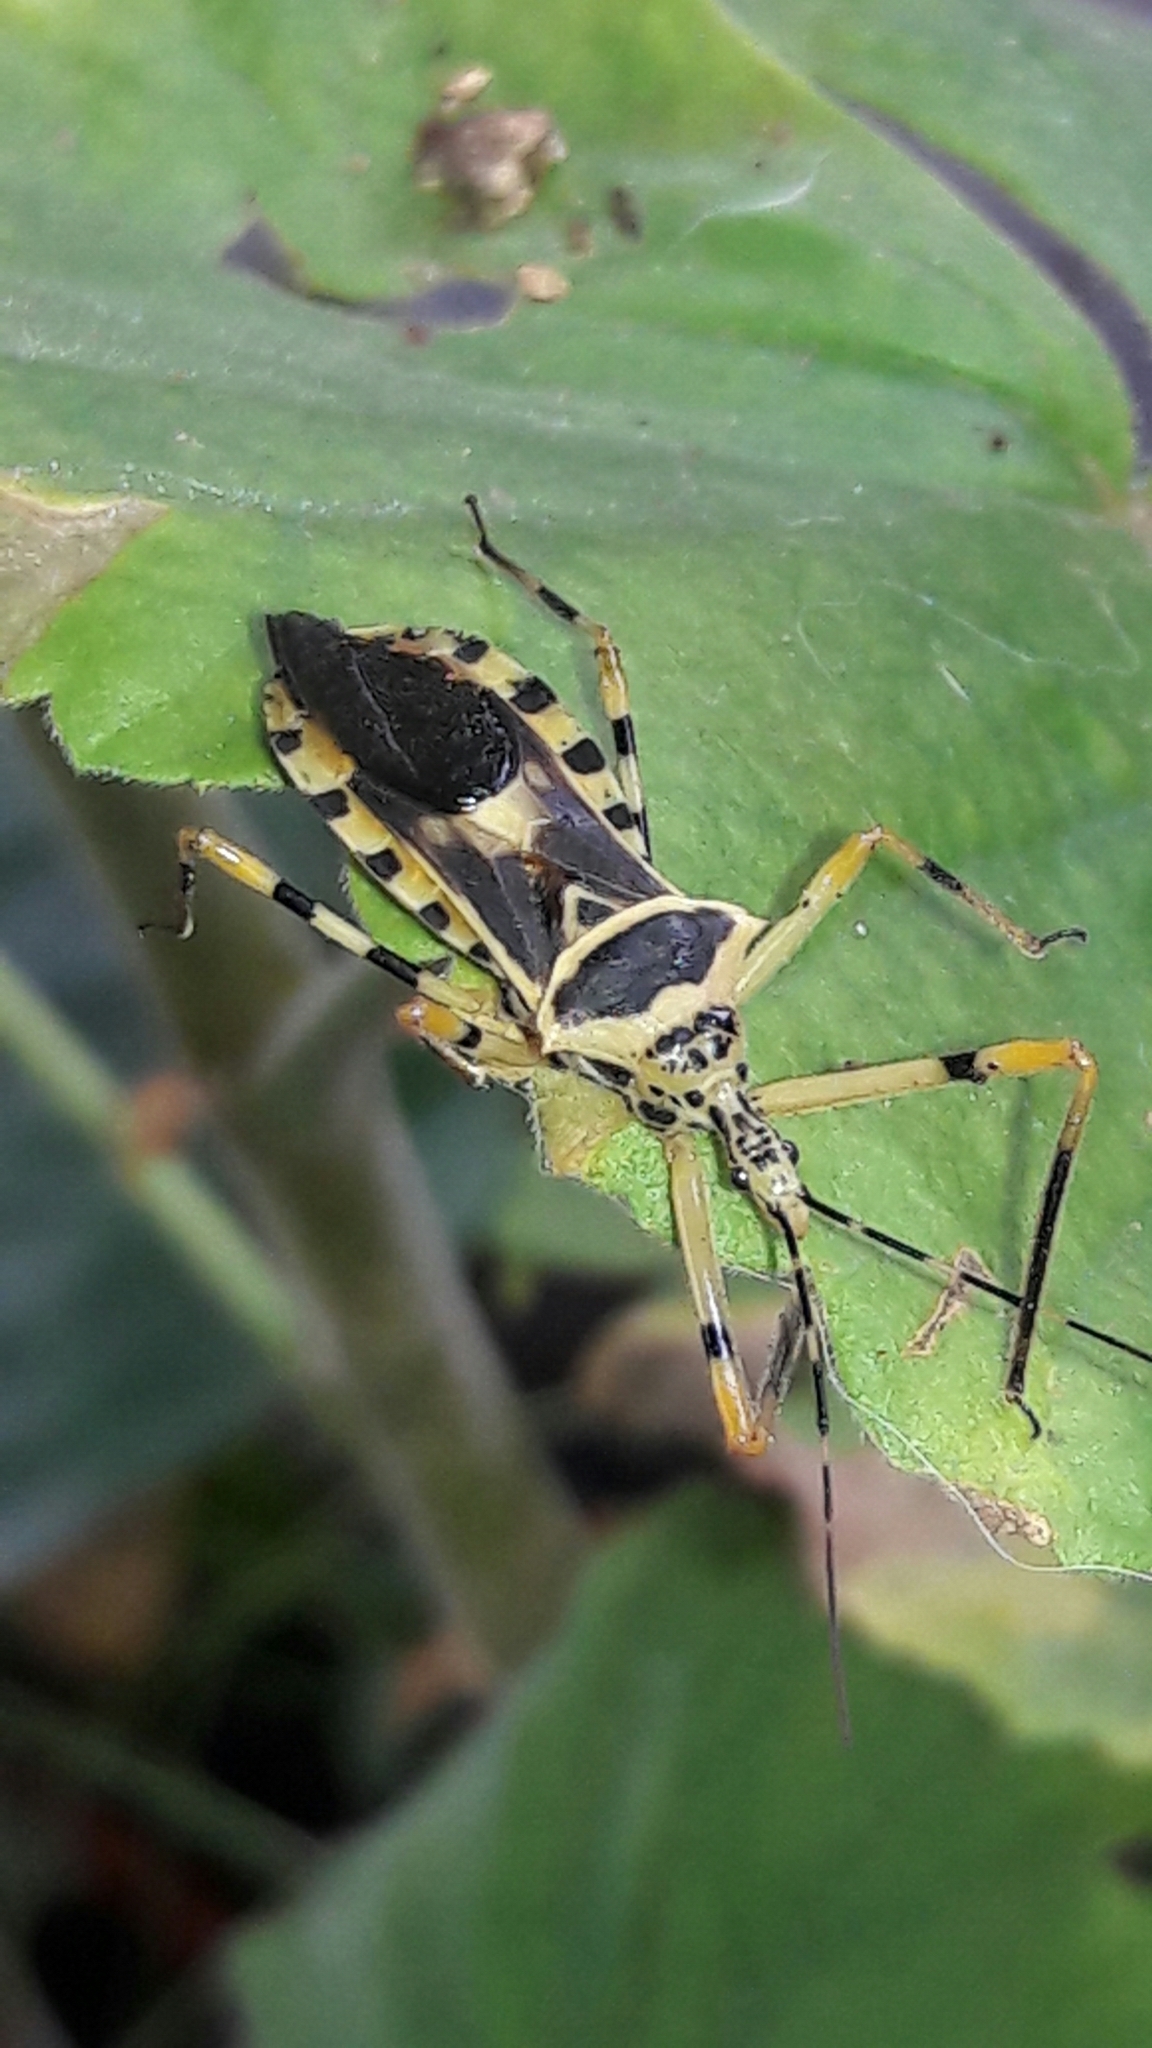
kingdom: Animalia
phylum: Arthropoda
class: Insecta
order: Hemiptera
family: Reduviidae
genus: Zelus
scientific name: Zelus armillatus
